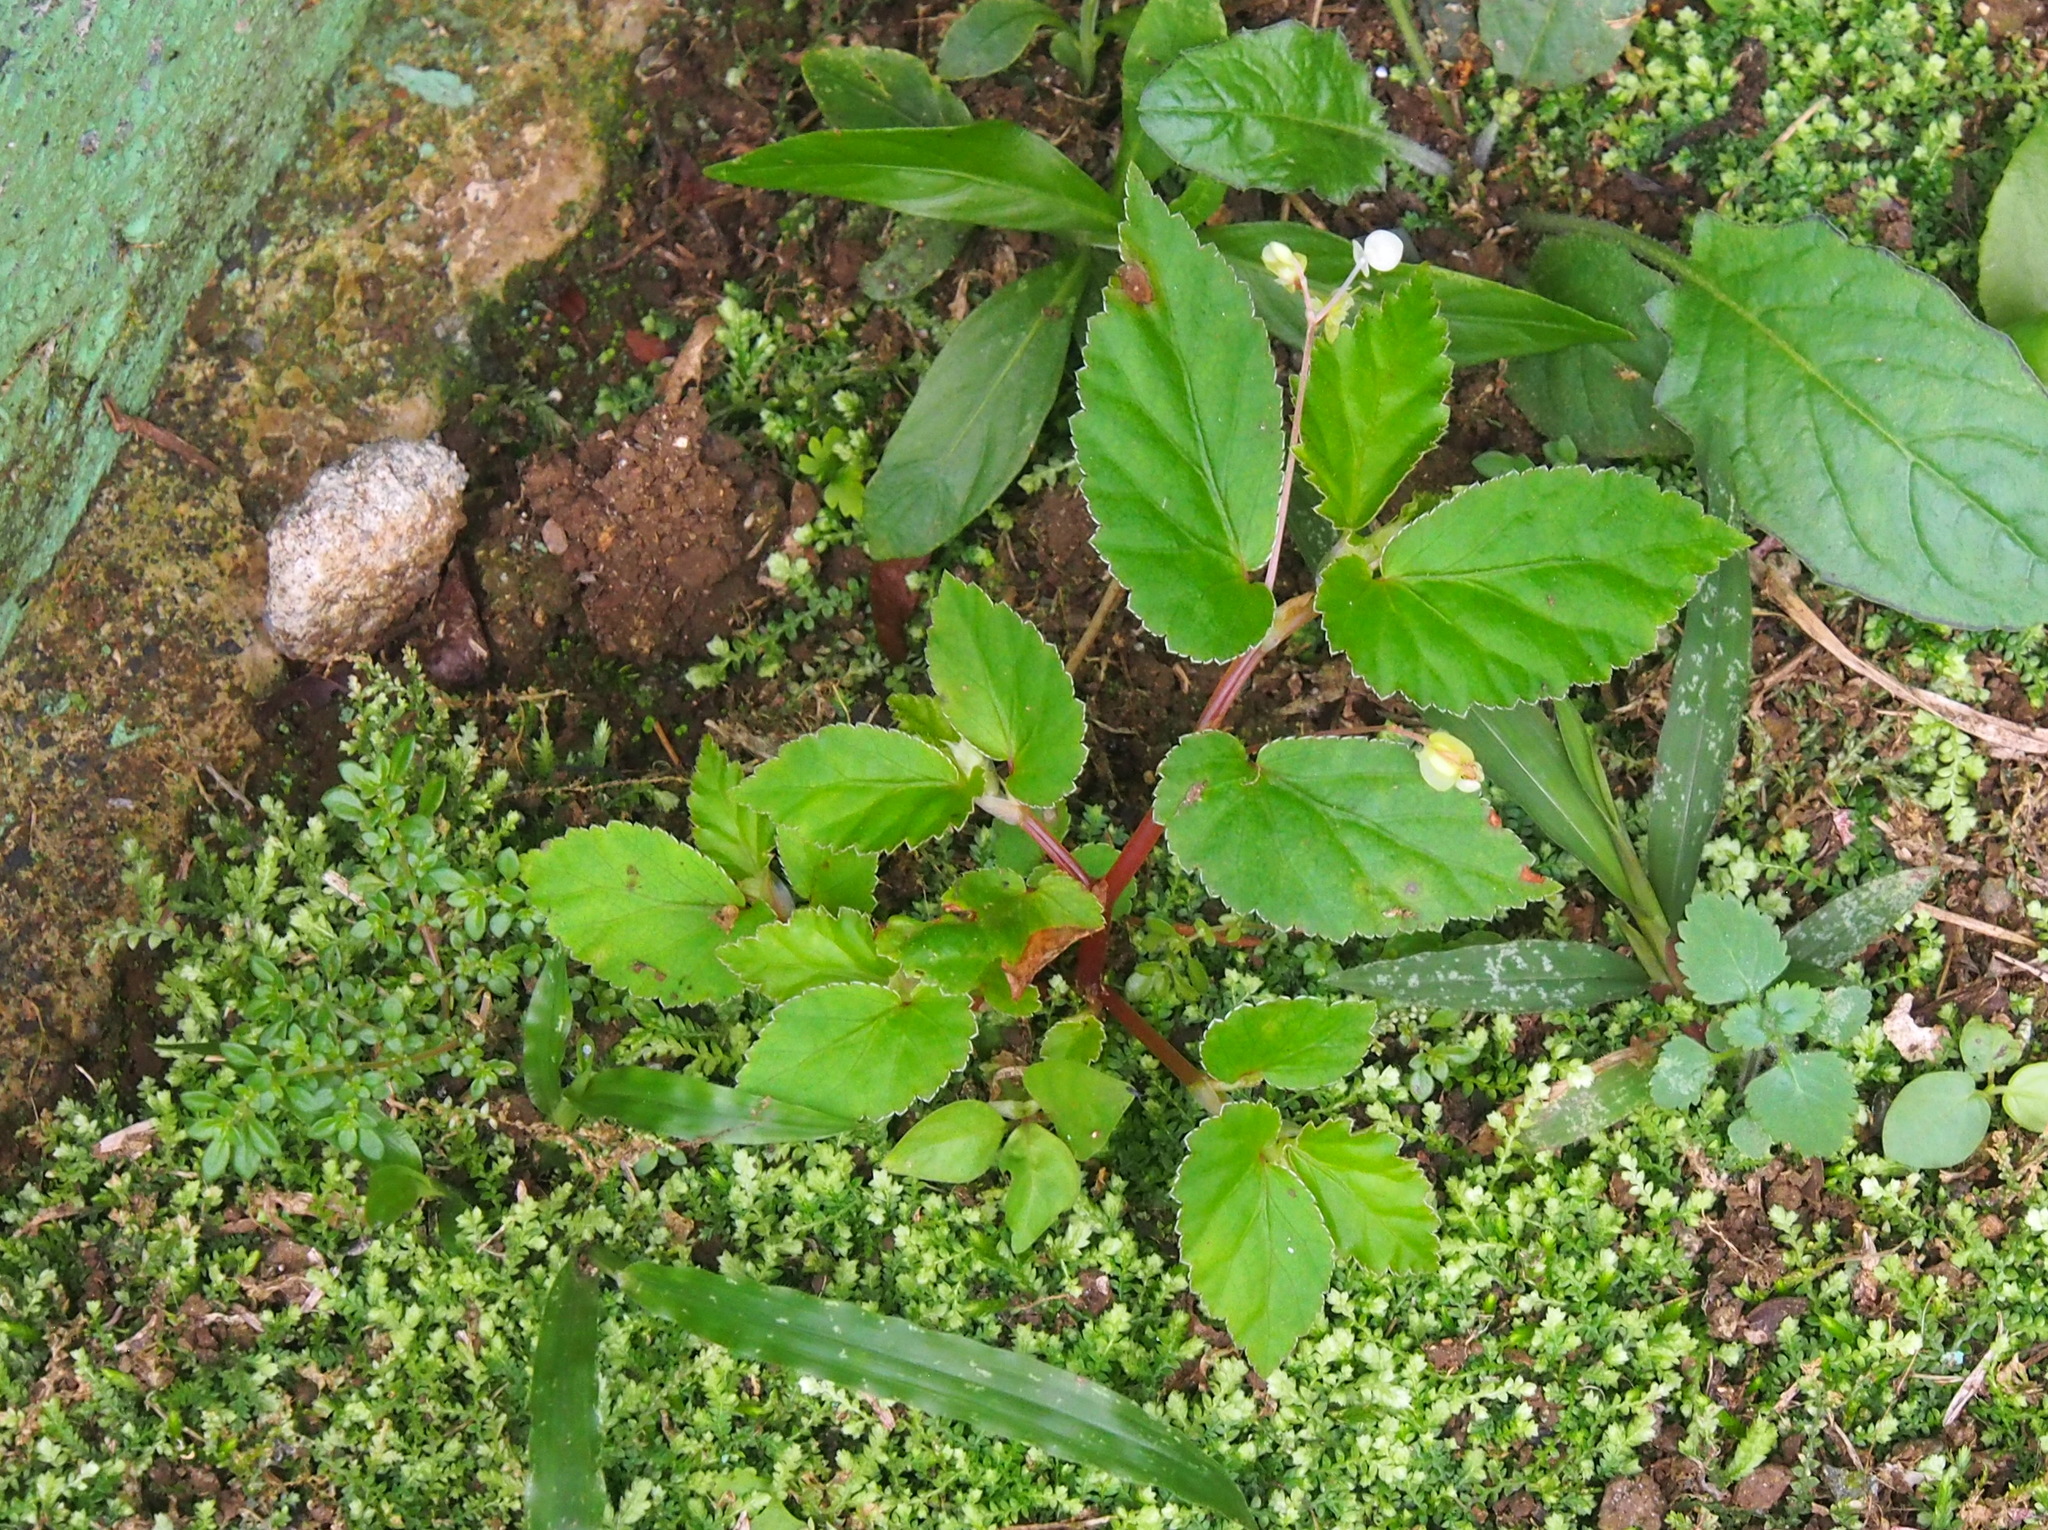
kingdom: Plantae
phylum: Tracheophyta
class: Magnoliopsida
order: Cucurbitales
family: Begoniaceae
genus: Begonia
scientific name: Begonia semiovata
